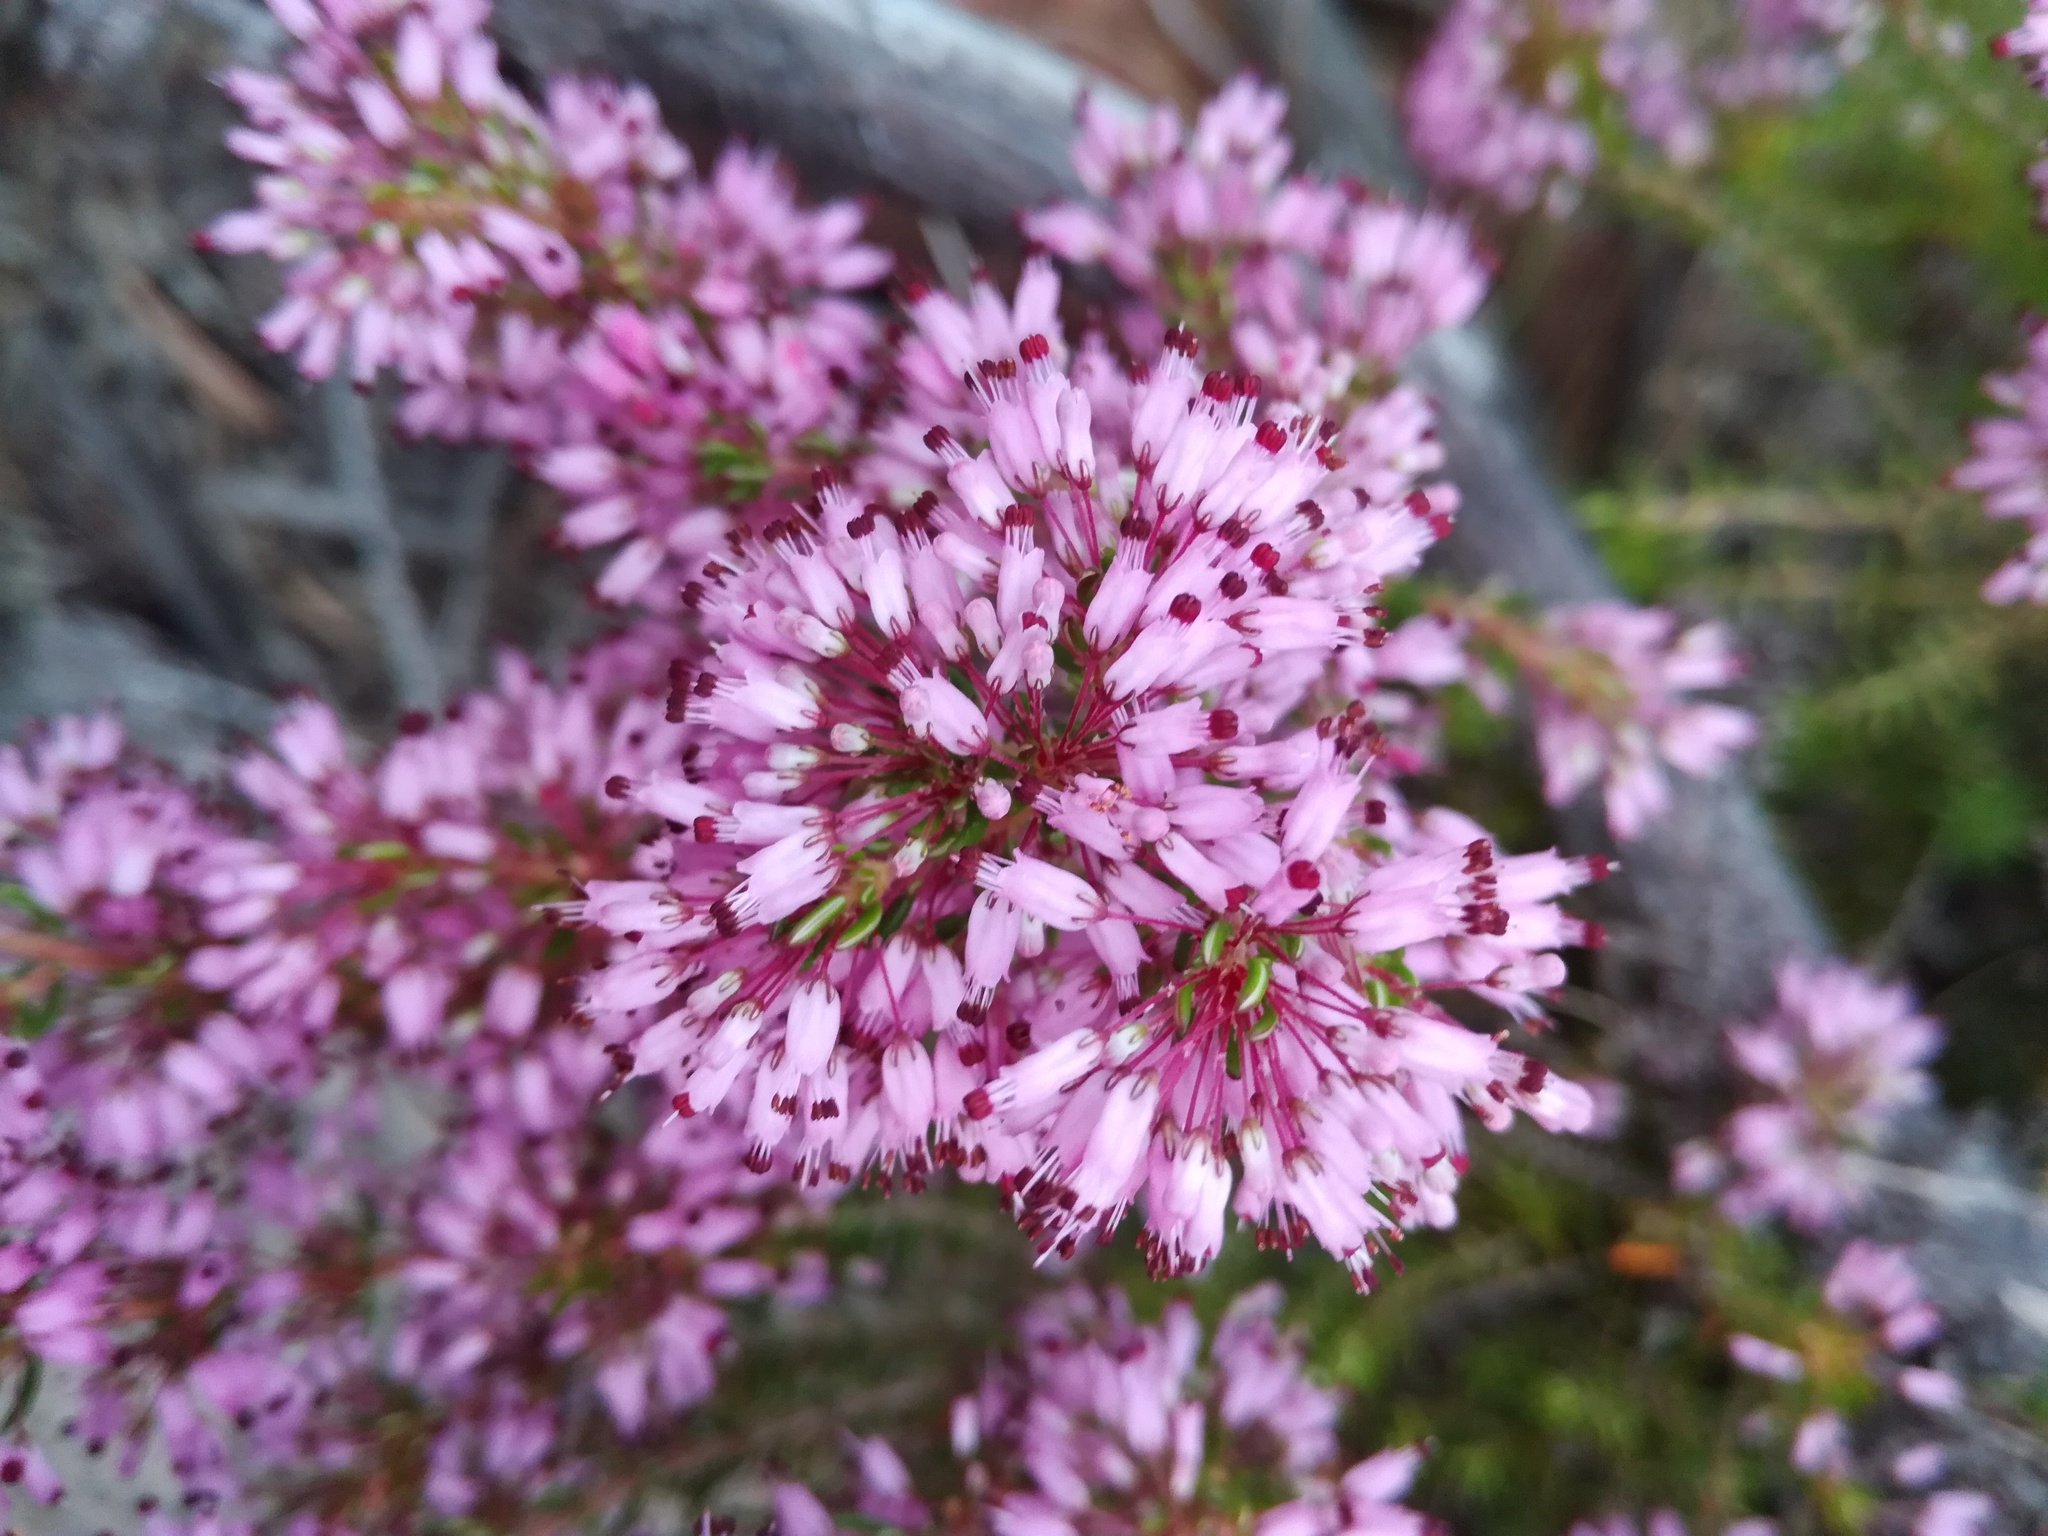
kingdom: Plantae
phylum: Tracheophyta
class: Magnoliopsida
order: Ericales
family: Ericaceae
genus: Erica
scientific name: Erica nudiflora
